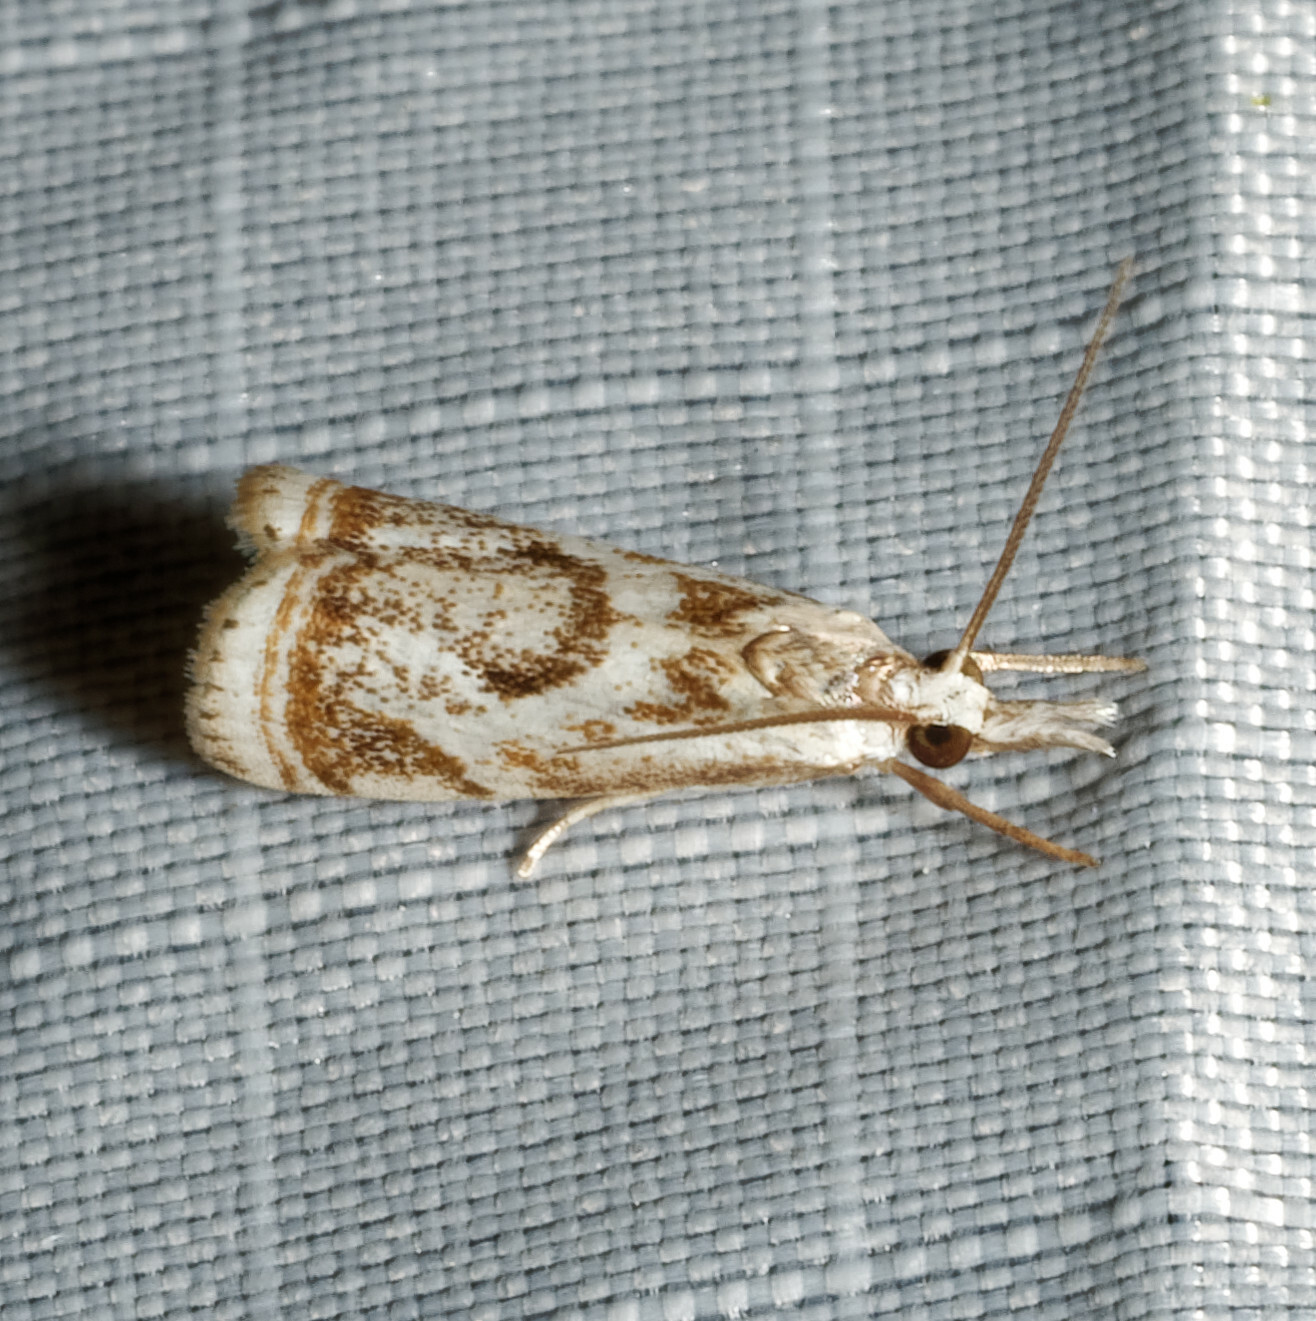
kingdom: Animalia
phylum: Arthropoda
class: Insecta
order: Lepidoptera
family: Crambidae
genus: Microcrambus
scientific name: Microcrambus elegans
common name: Elegant grass-veneer
